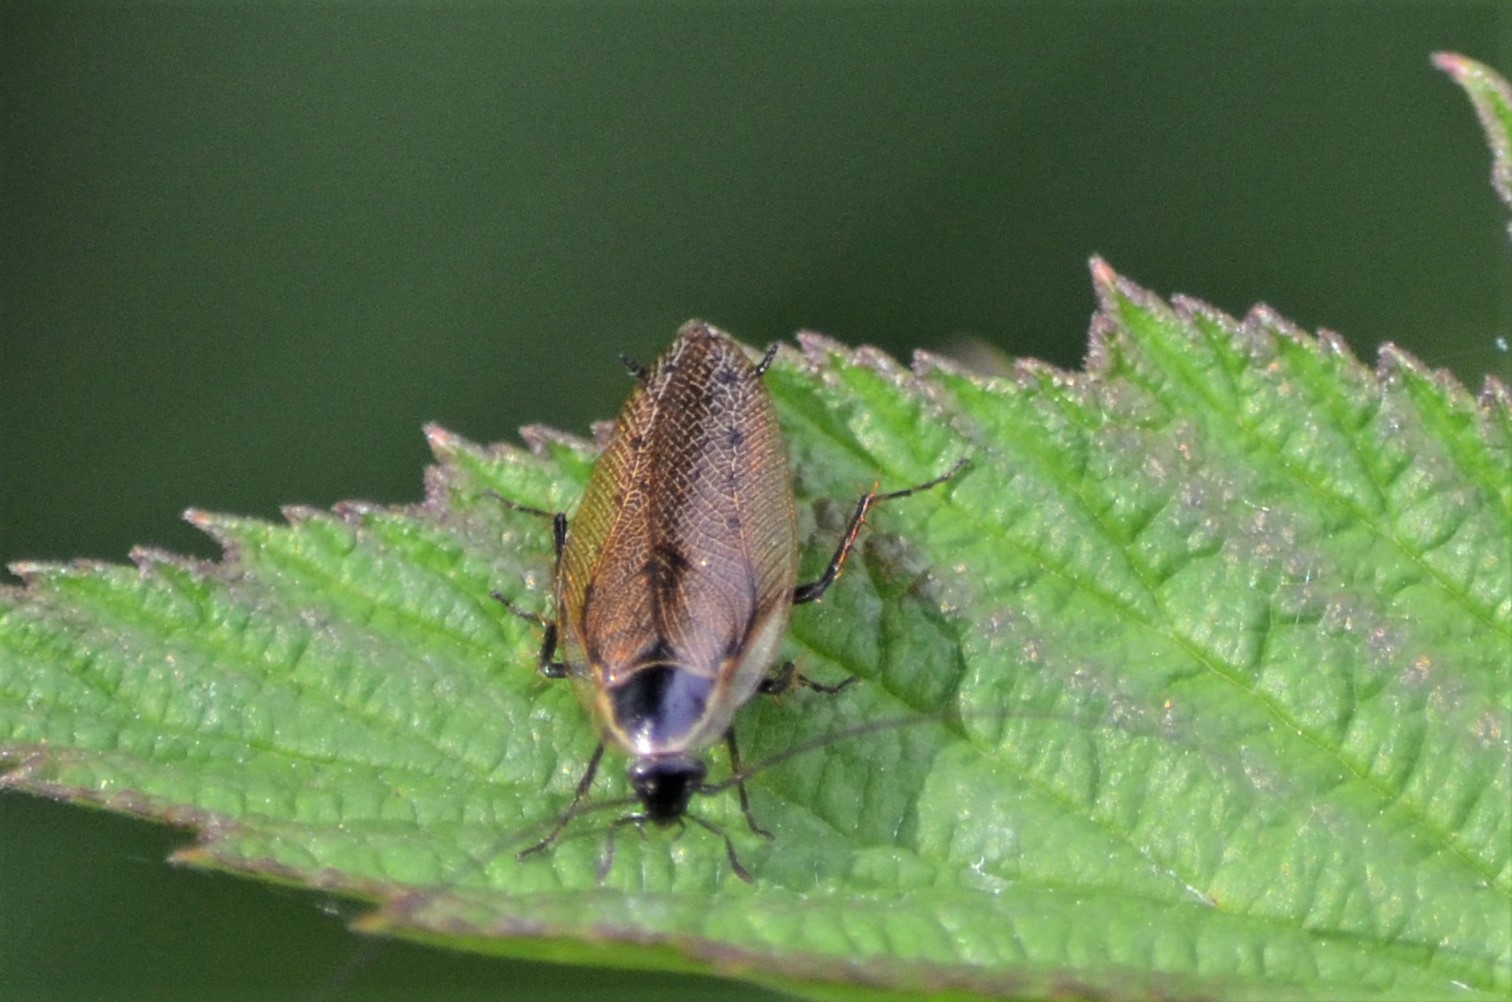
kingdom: Animalia
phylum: Arthropoda
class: Insecta
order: Blattodea
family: Ectobiidae
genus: Ectobius
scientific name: Ectobius sylvestris
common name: Forest cockroach
